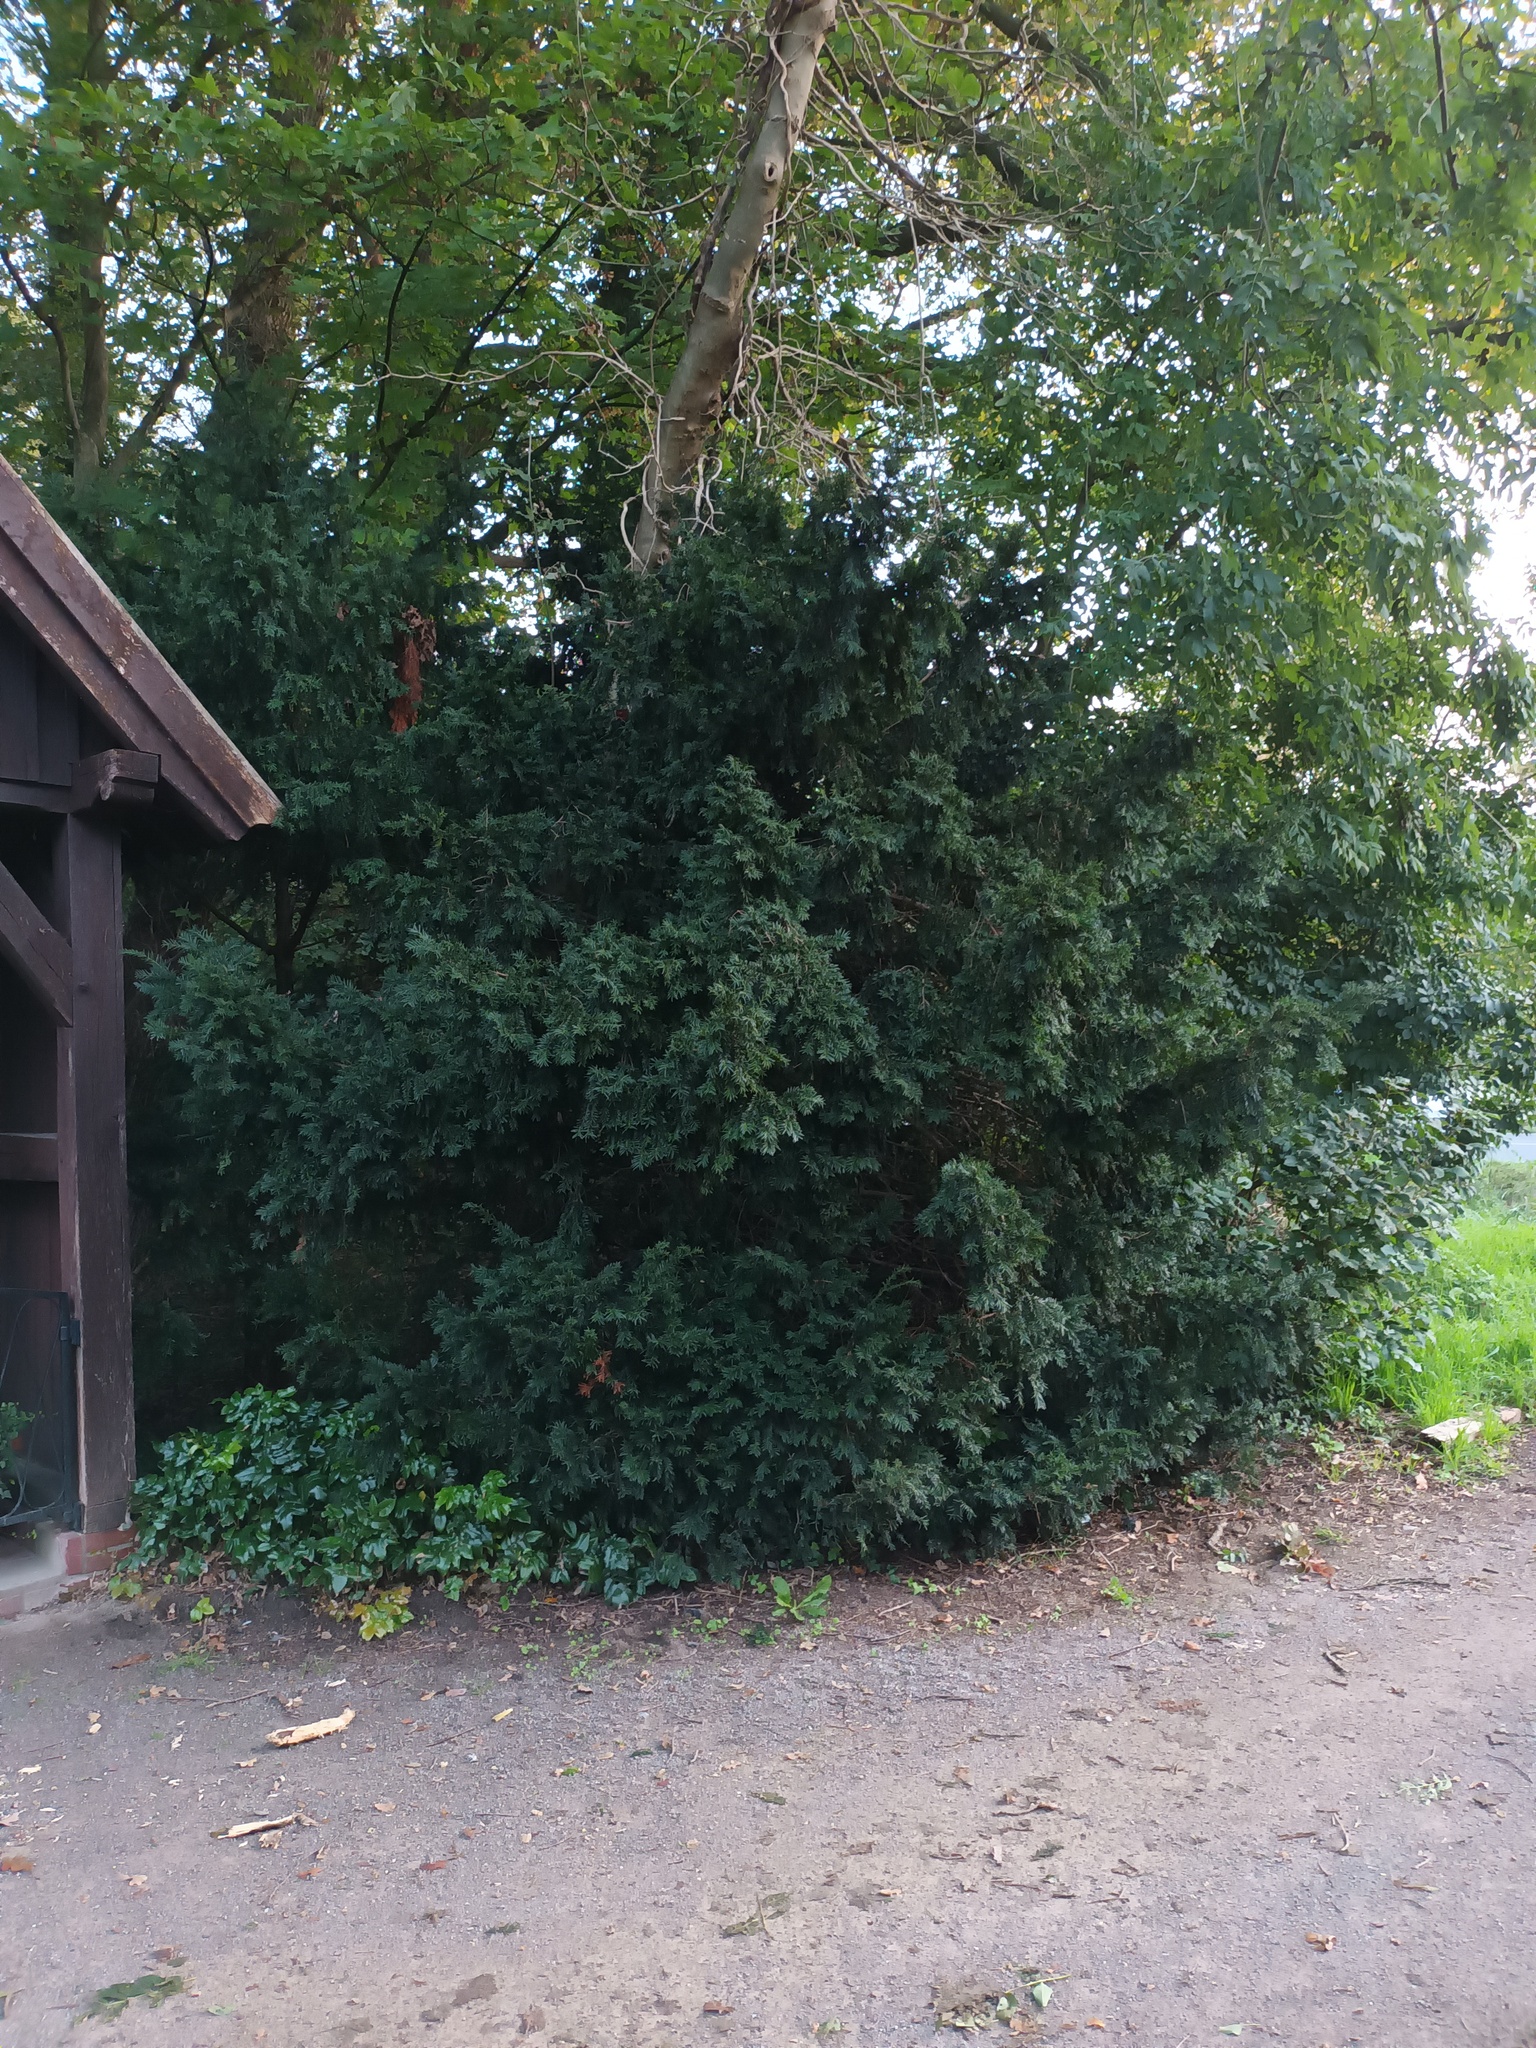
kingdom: Plantae
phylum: Tracheophyta
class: Pinopsida
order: Pinales
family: Taxaceae
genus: Taxus
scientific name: Taxus baccata
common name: Yew
